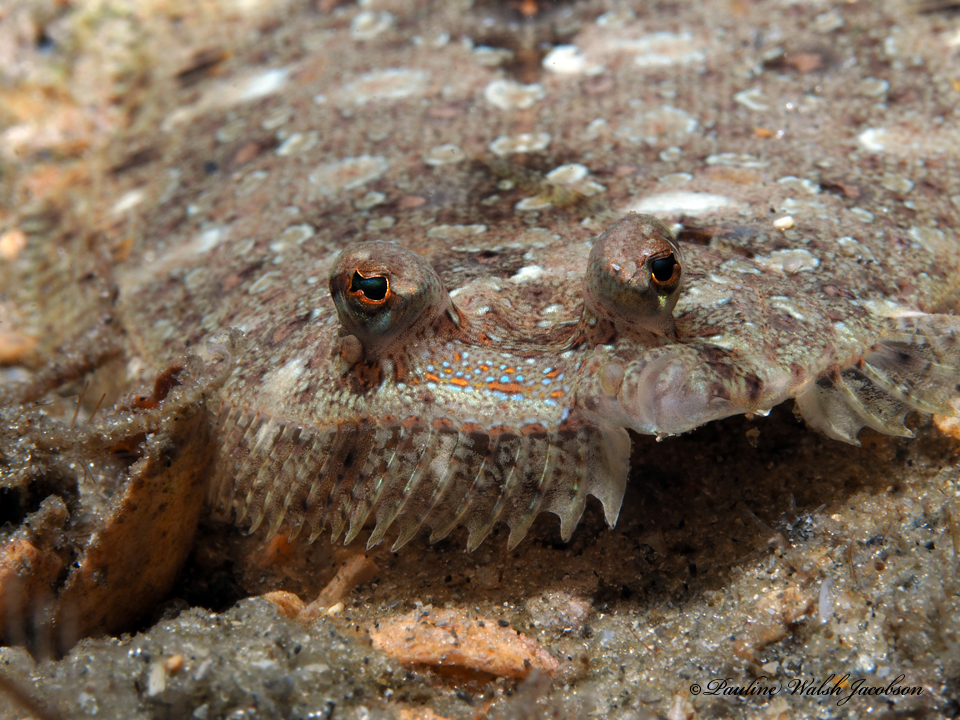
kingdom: Animalia
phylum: Chordata
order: Pleuronectiformes
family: Bothidae
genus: Bothus
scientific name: Bothus ocellatus
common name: Eyed flounder
